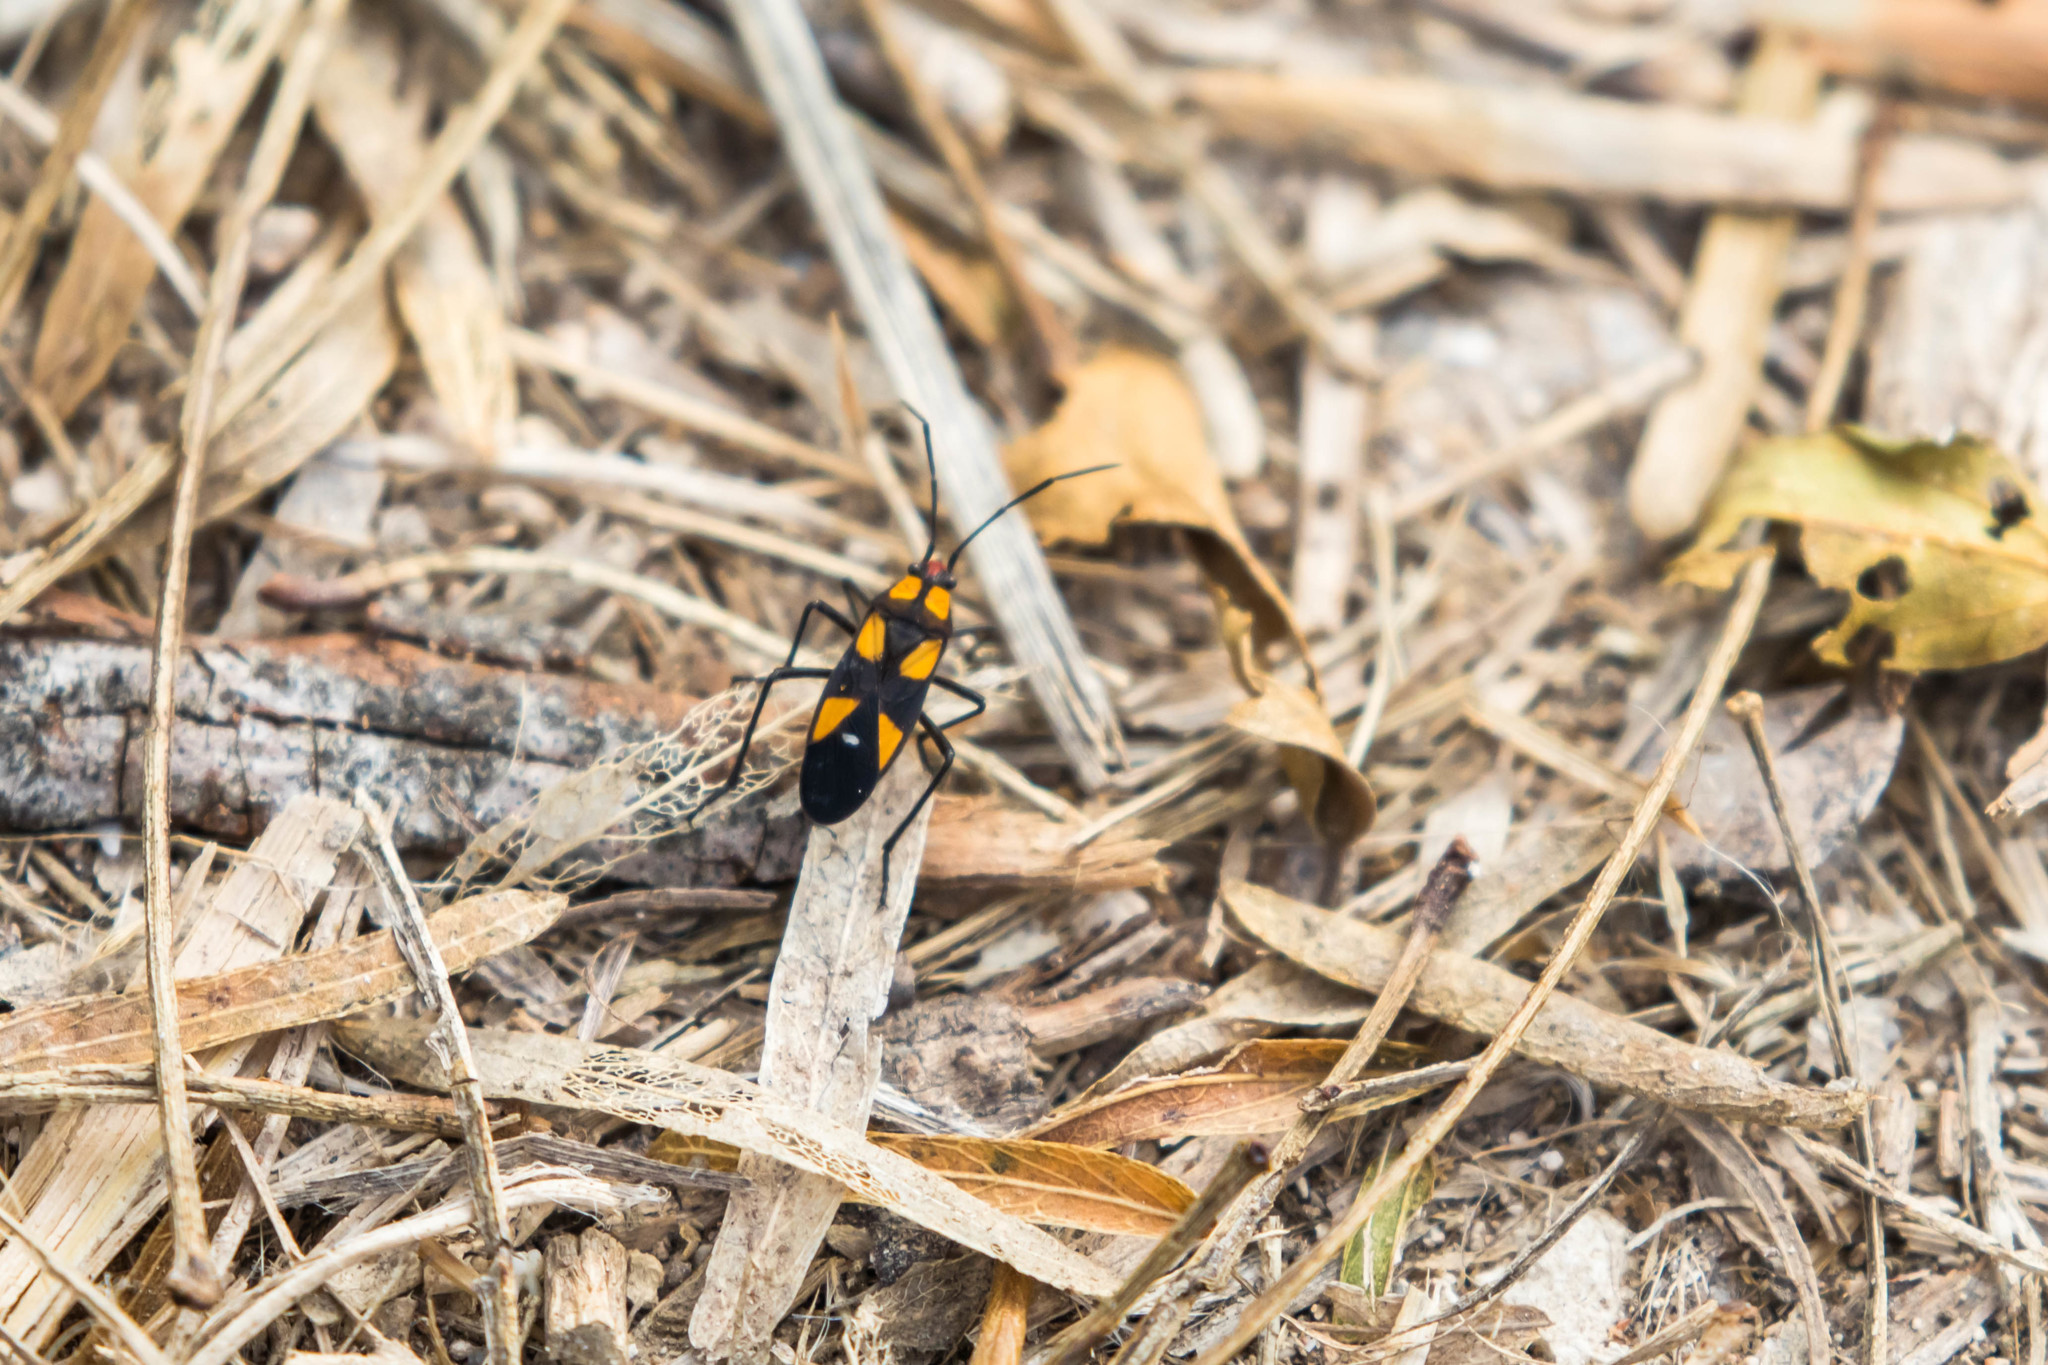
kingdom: Animalia
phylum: Arthropoda
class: Insecta
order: Hemiptera
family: Lygaeidae
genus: Oncopeltus
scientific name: Oncopeltus sexmaculatus
